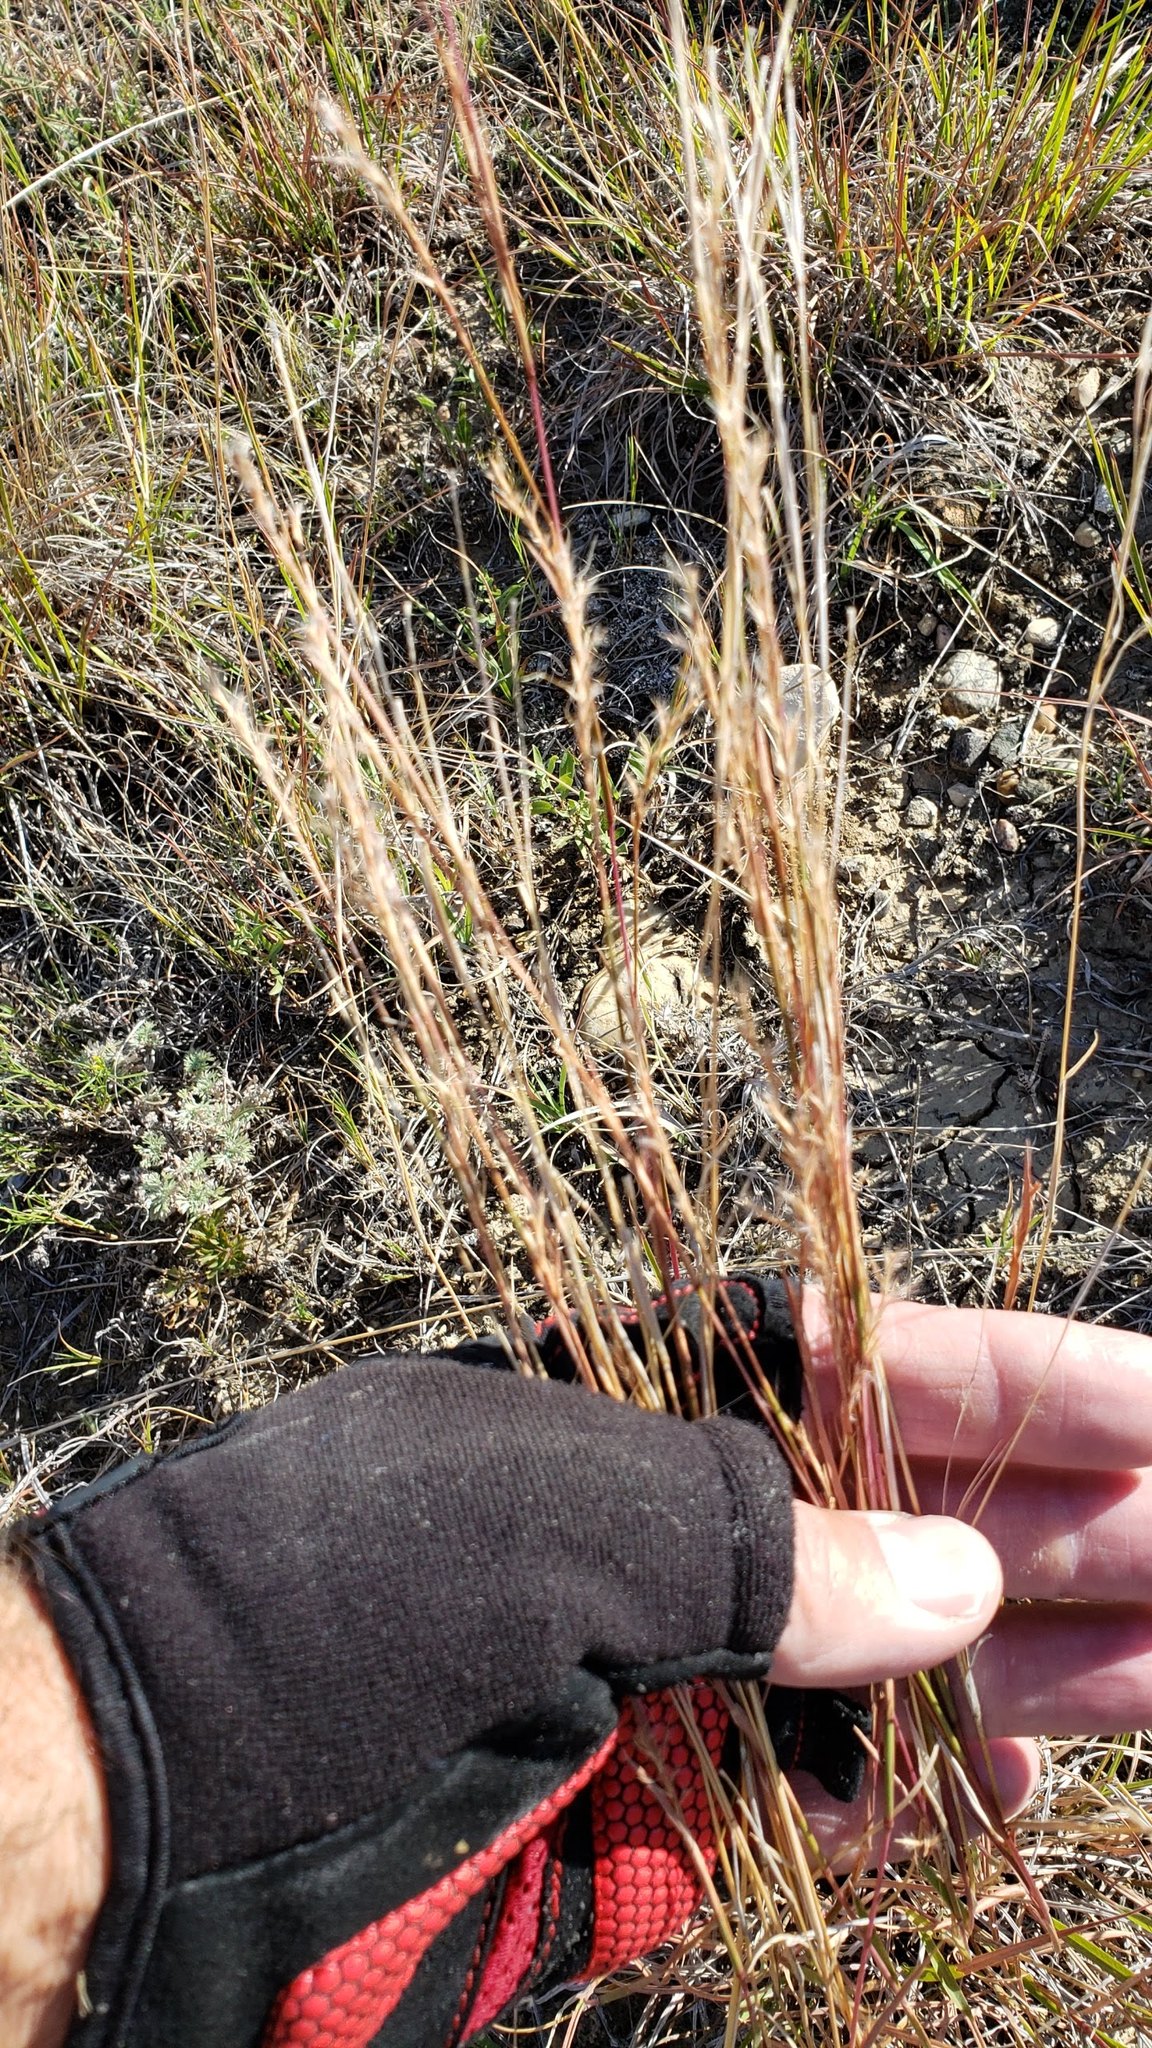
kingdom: Plantae
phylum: Tracheophyta
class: Liliopsida
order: Poales
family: Poaceae
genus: Schizachyrium
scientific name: Schizachyrium scoparium
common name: Little bluestem
